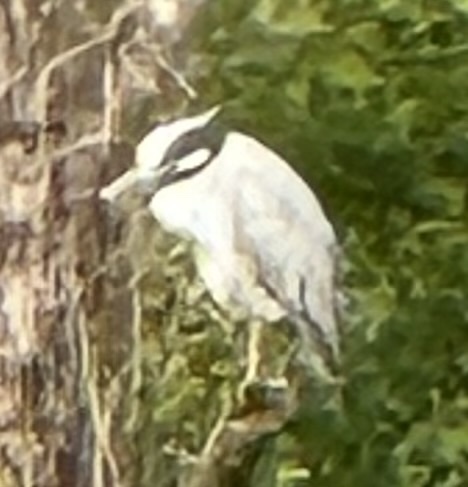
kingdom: Animalia
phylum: Chordata
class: Aves
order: Pelecaniformes
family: Ardeidae
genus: Nyctanassa
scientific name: Nyctanassa violacea
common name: Yellow-crowned night heron
